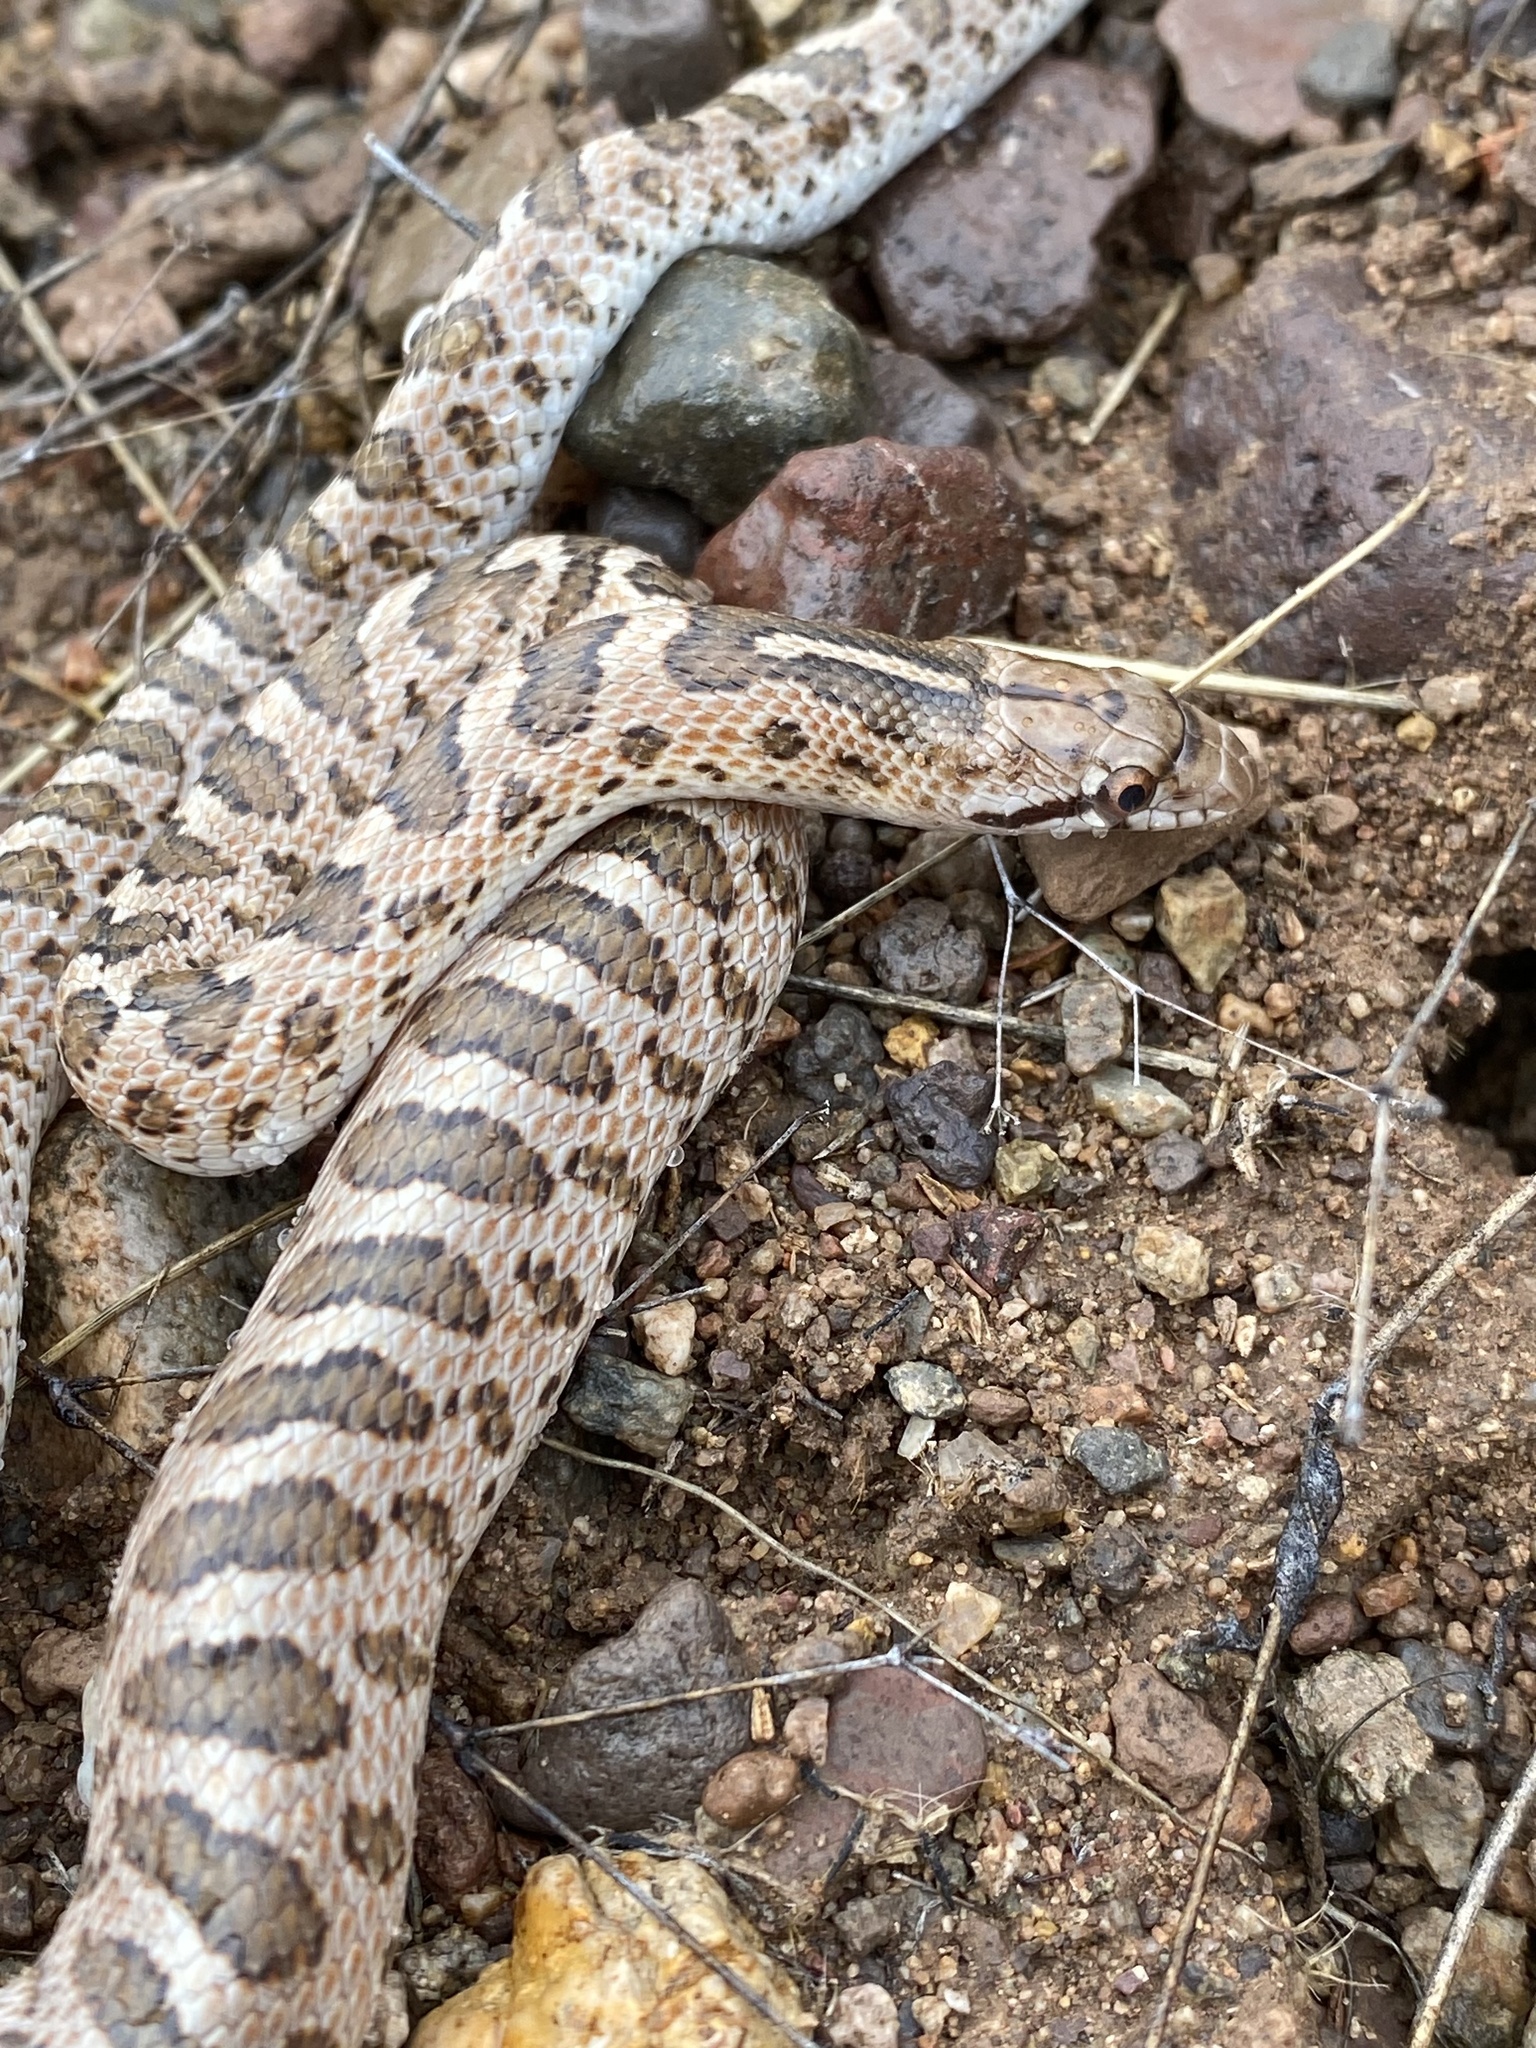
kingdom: Animalia
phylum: Chordata
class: Squamata
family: Colubridae
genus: Arizona
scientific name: Arizona elegans
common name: Glossy snake
